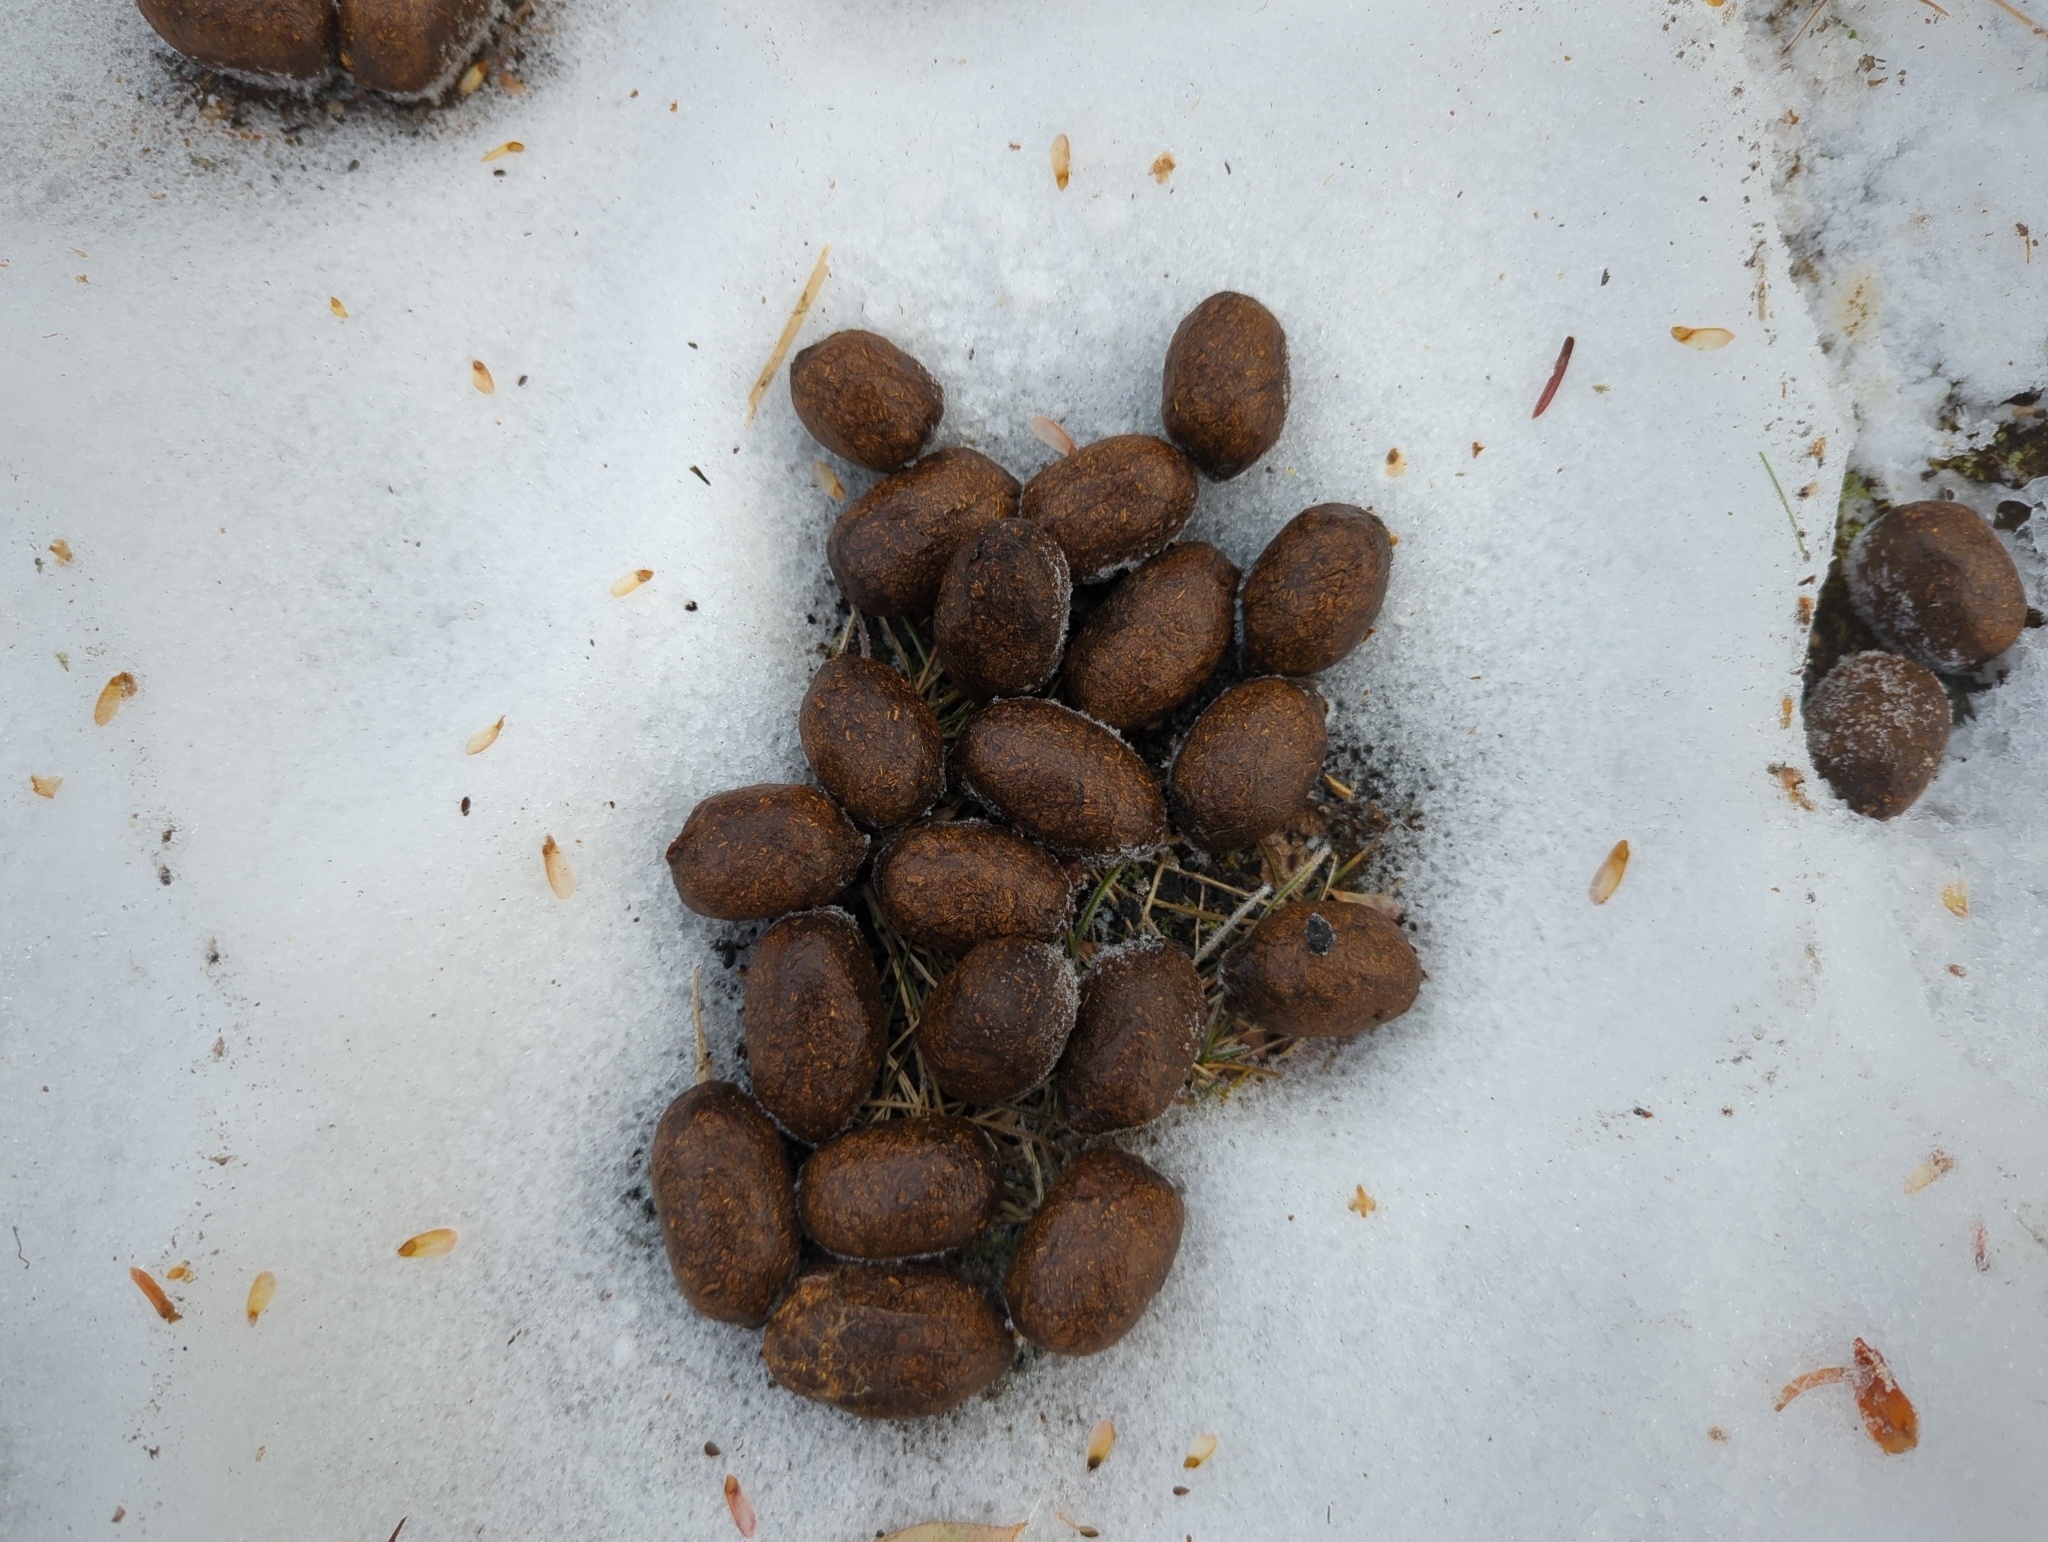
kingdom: Animalia
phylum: Chordata
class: Mammalia
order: Artiodactyla
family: Cervidae
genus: Alces
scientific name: Alces alces
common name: Moose
